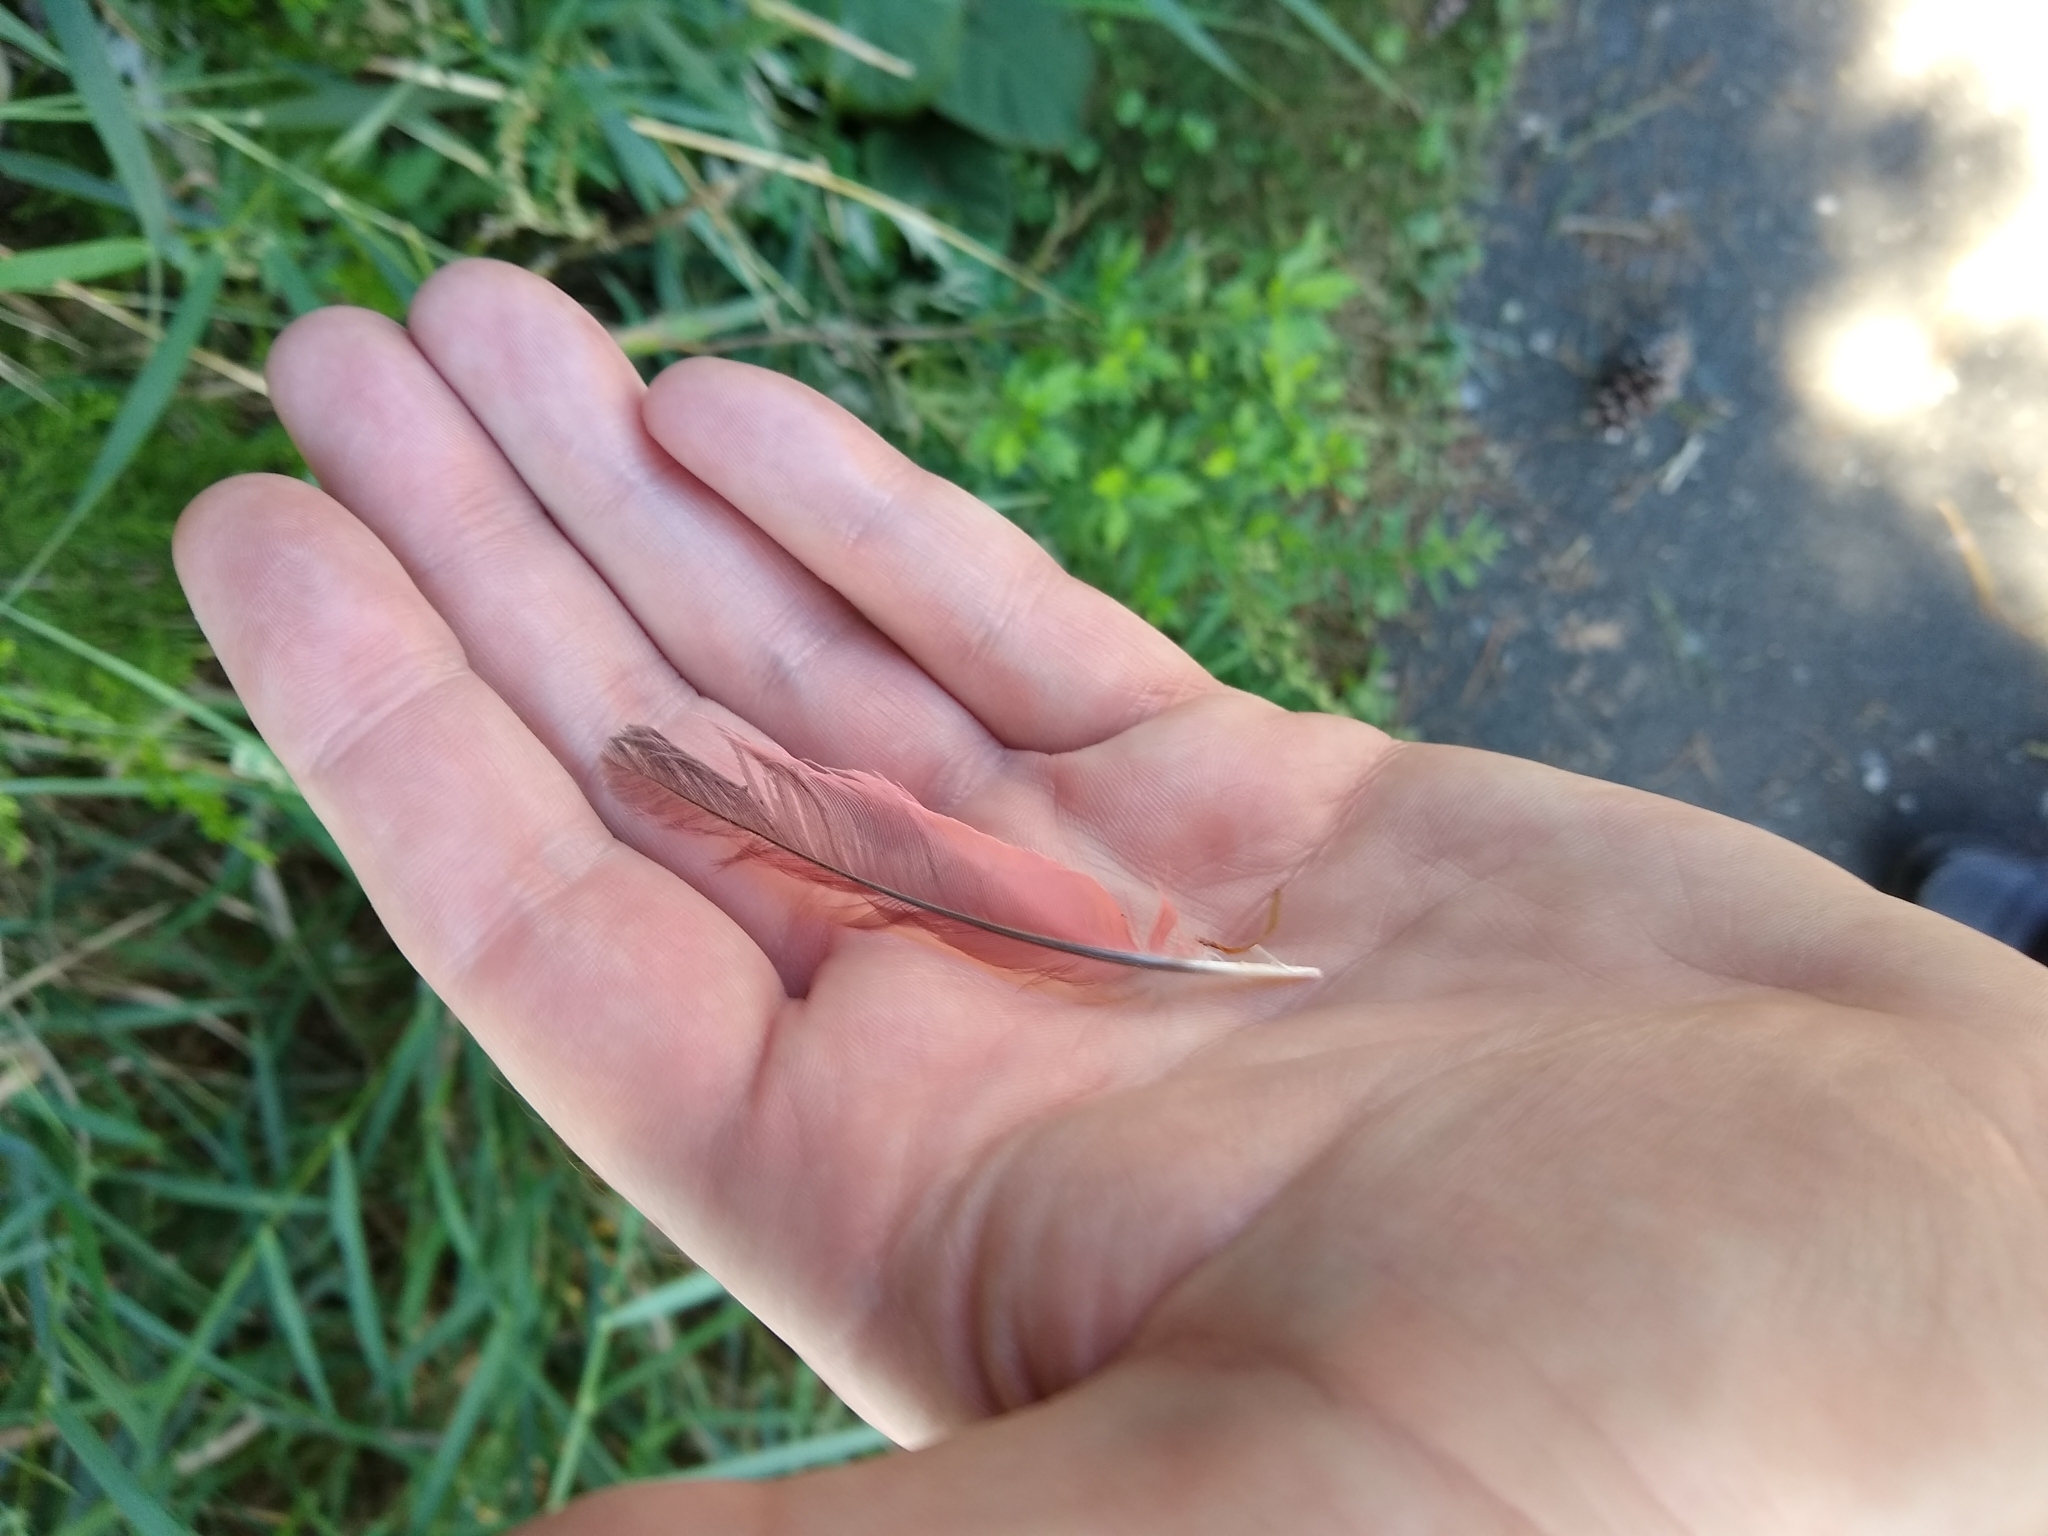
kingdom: Animalia
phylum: Chordata
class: Aves
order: Passeriformes
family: Cardinalidae
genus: Cardinalis
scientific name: Cardinalis cardinalis
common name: Northern cardinal
